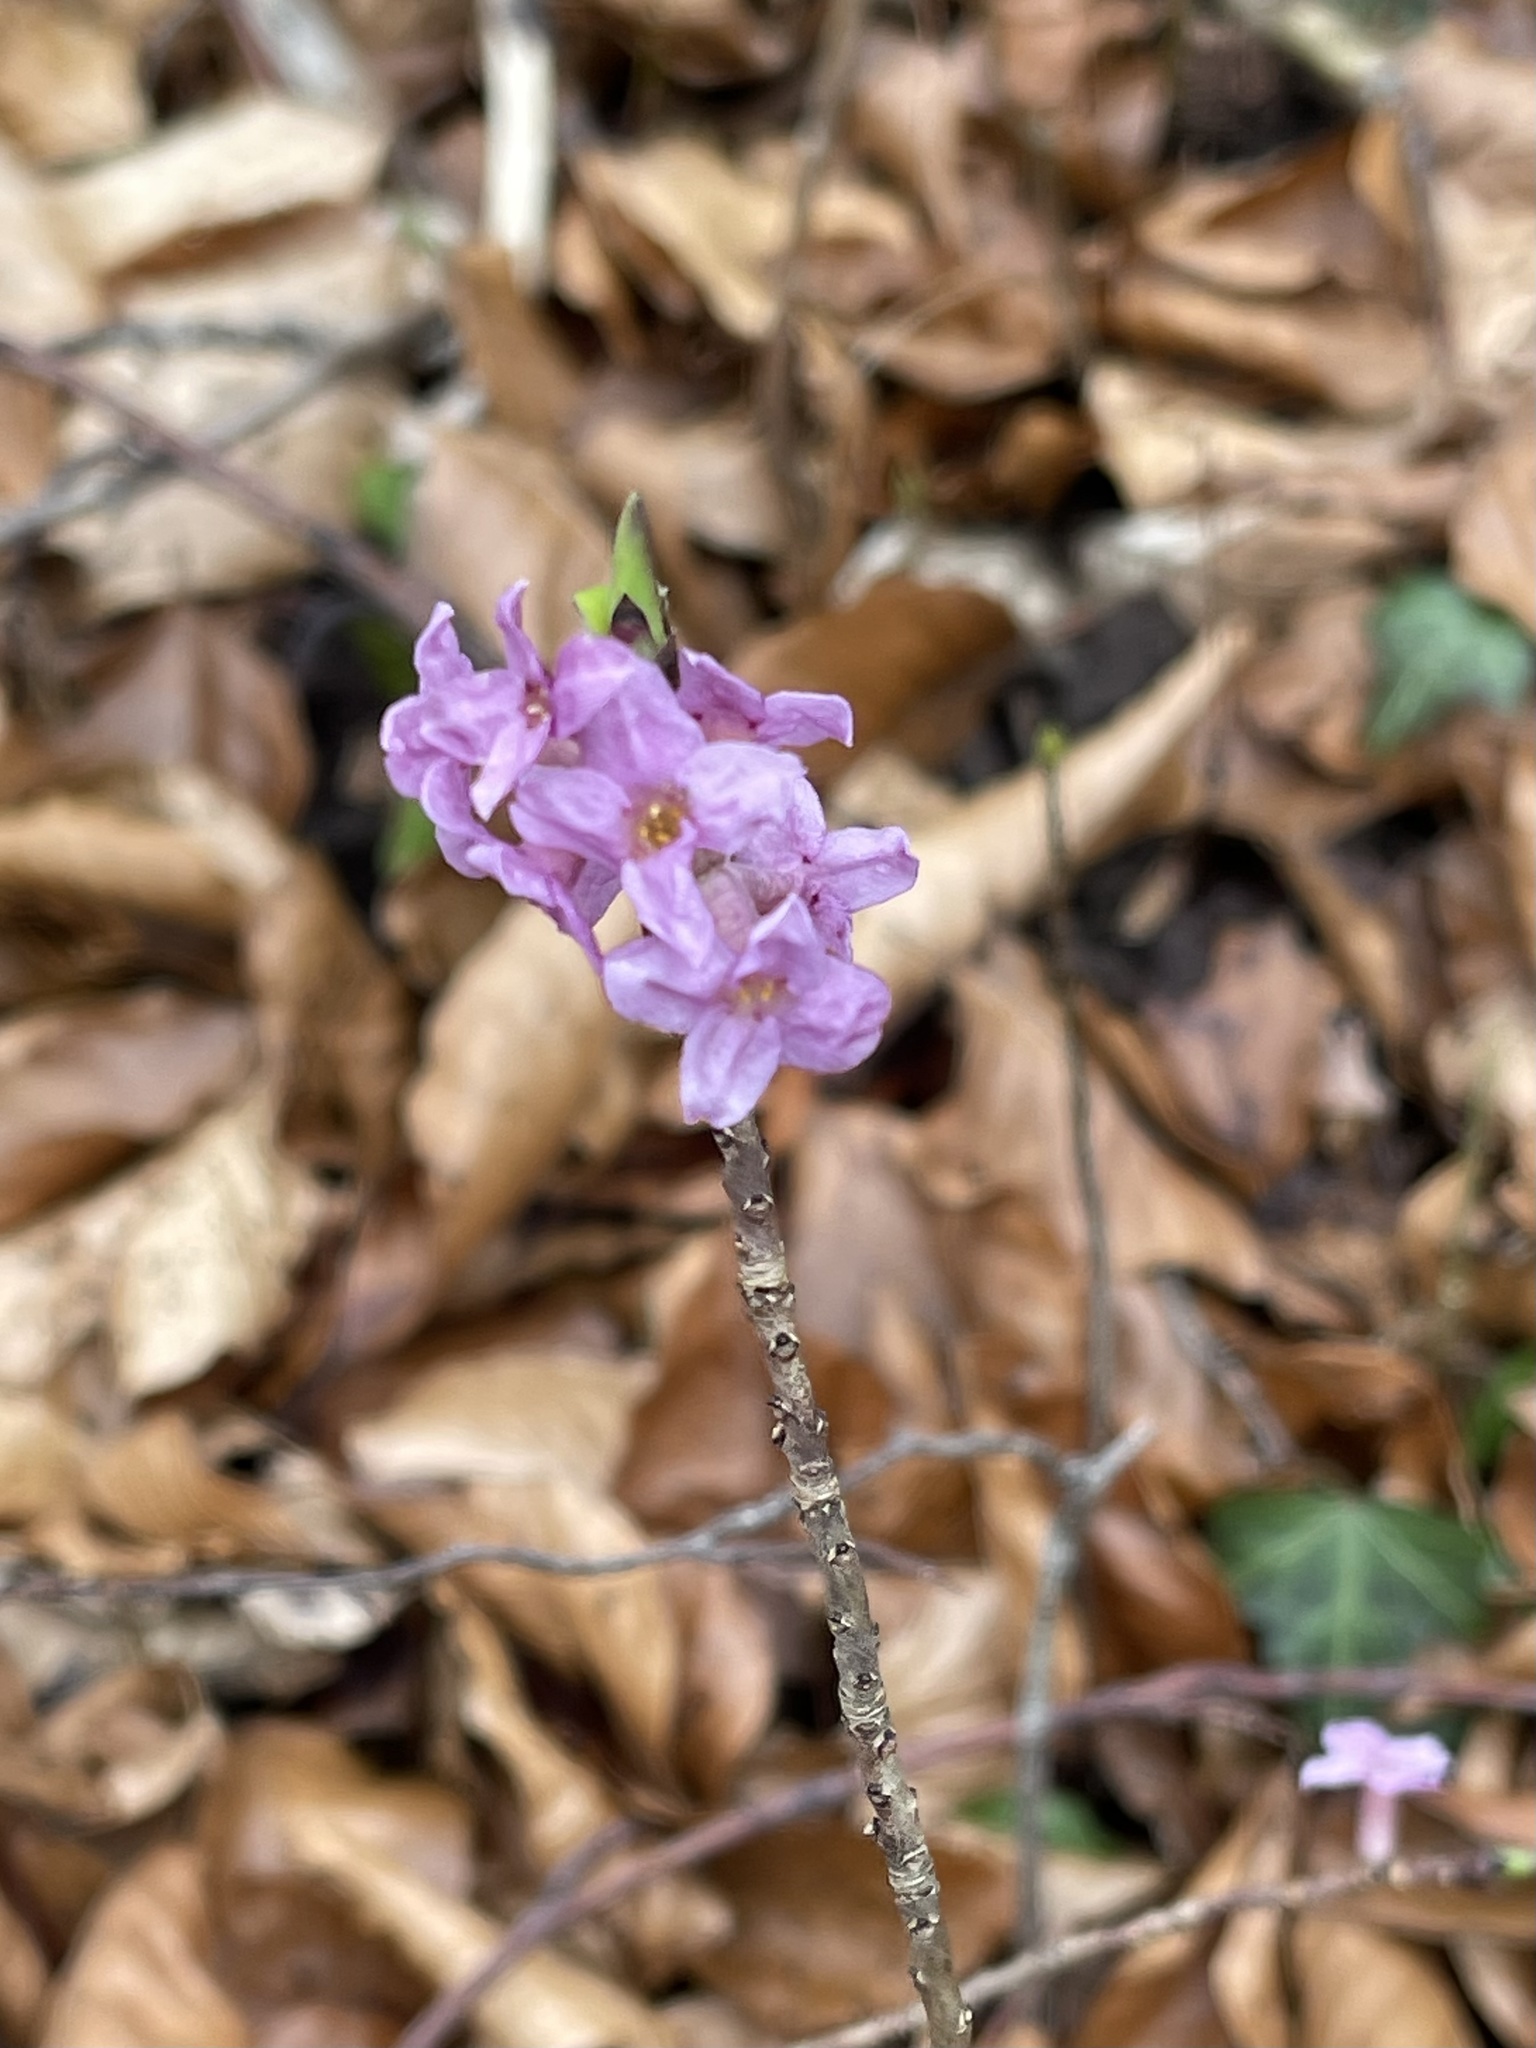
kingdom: Plantae
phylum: Tracheophyta
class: Magnoliopsida
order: Malvales
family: Thymelaeaceae
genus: Daphne
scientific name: Daphne mezereum
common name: Mezereon
